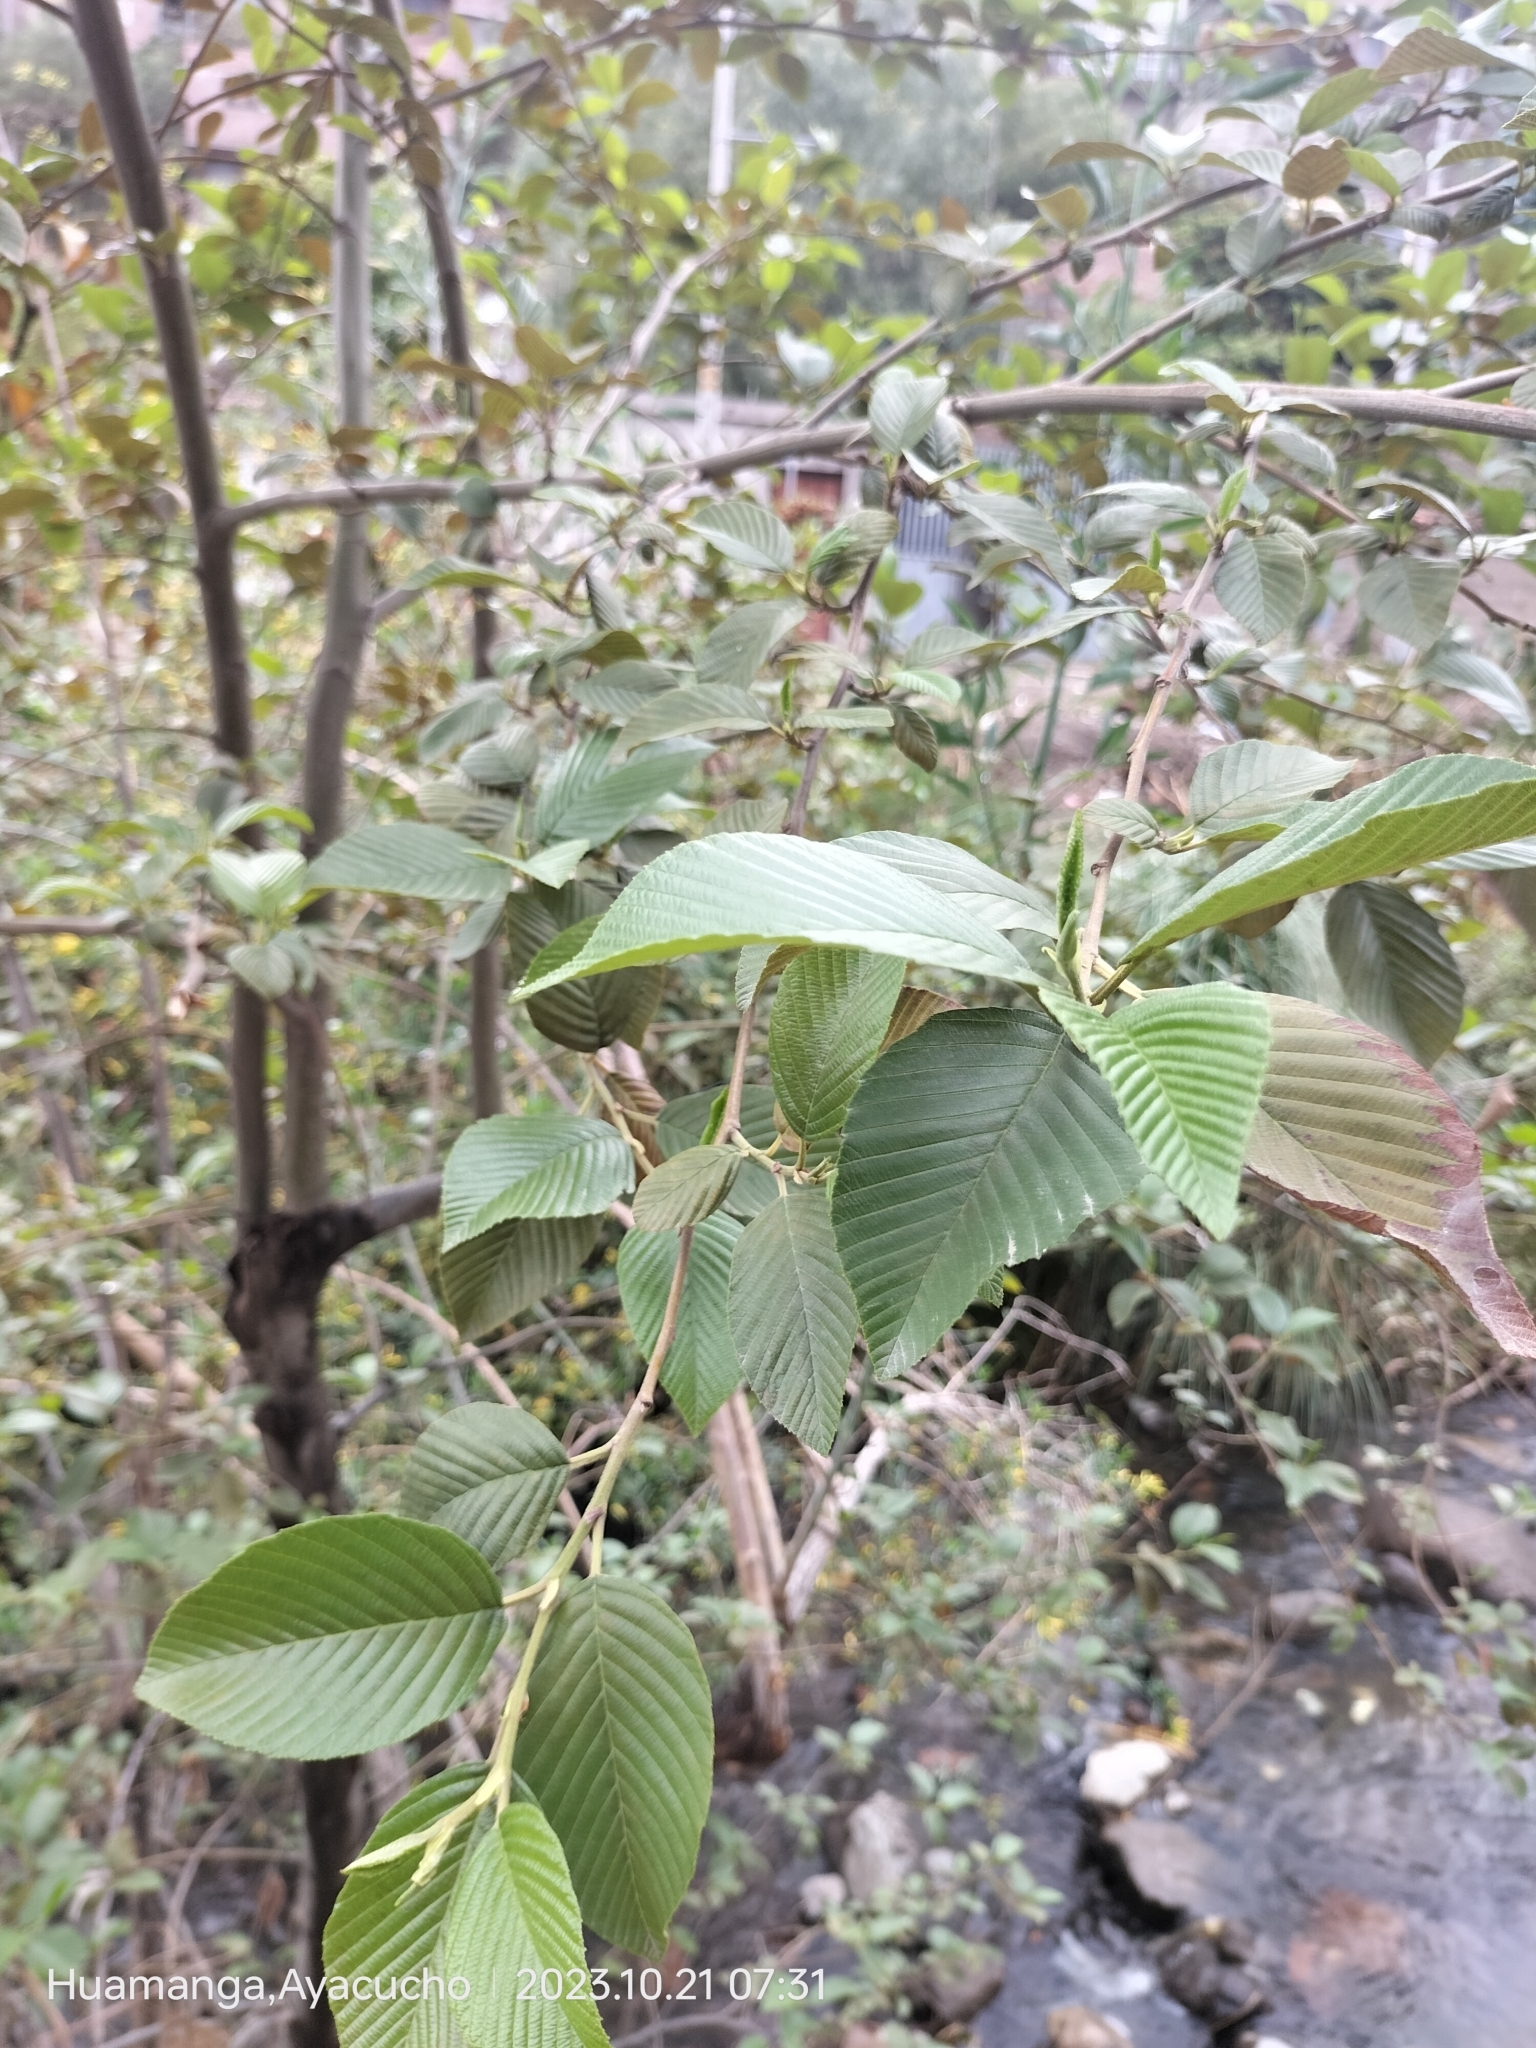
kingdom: Plantae
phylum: Tracheophyta
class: Magnoliopsida
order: Fagales
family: Betulaceae
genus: Alnus
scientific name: Alnus acuminata
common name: Alder
